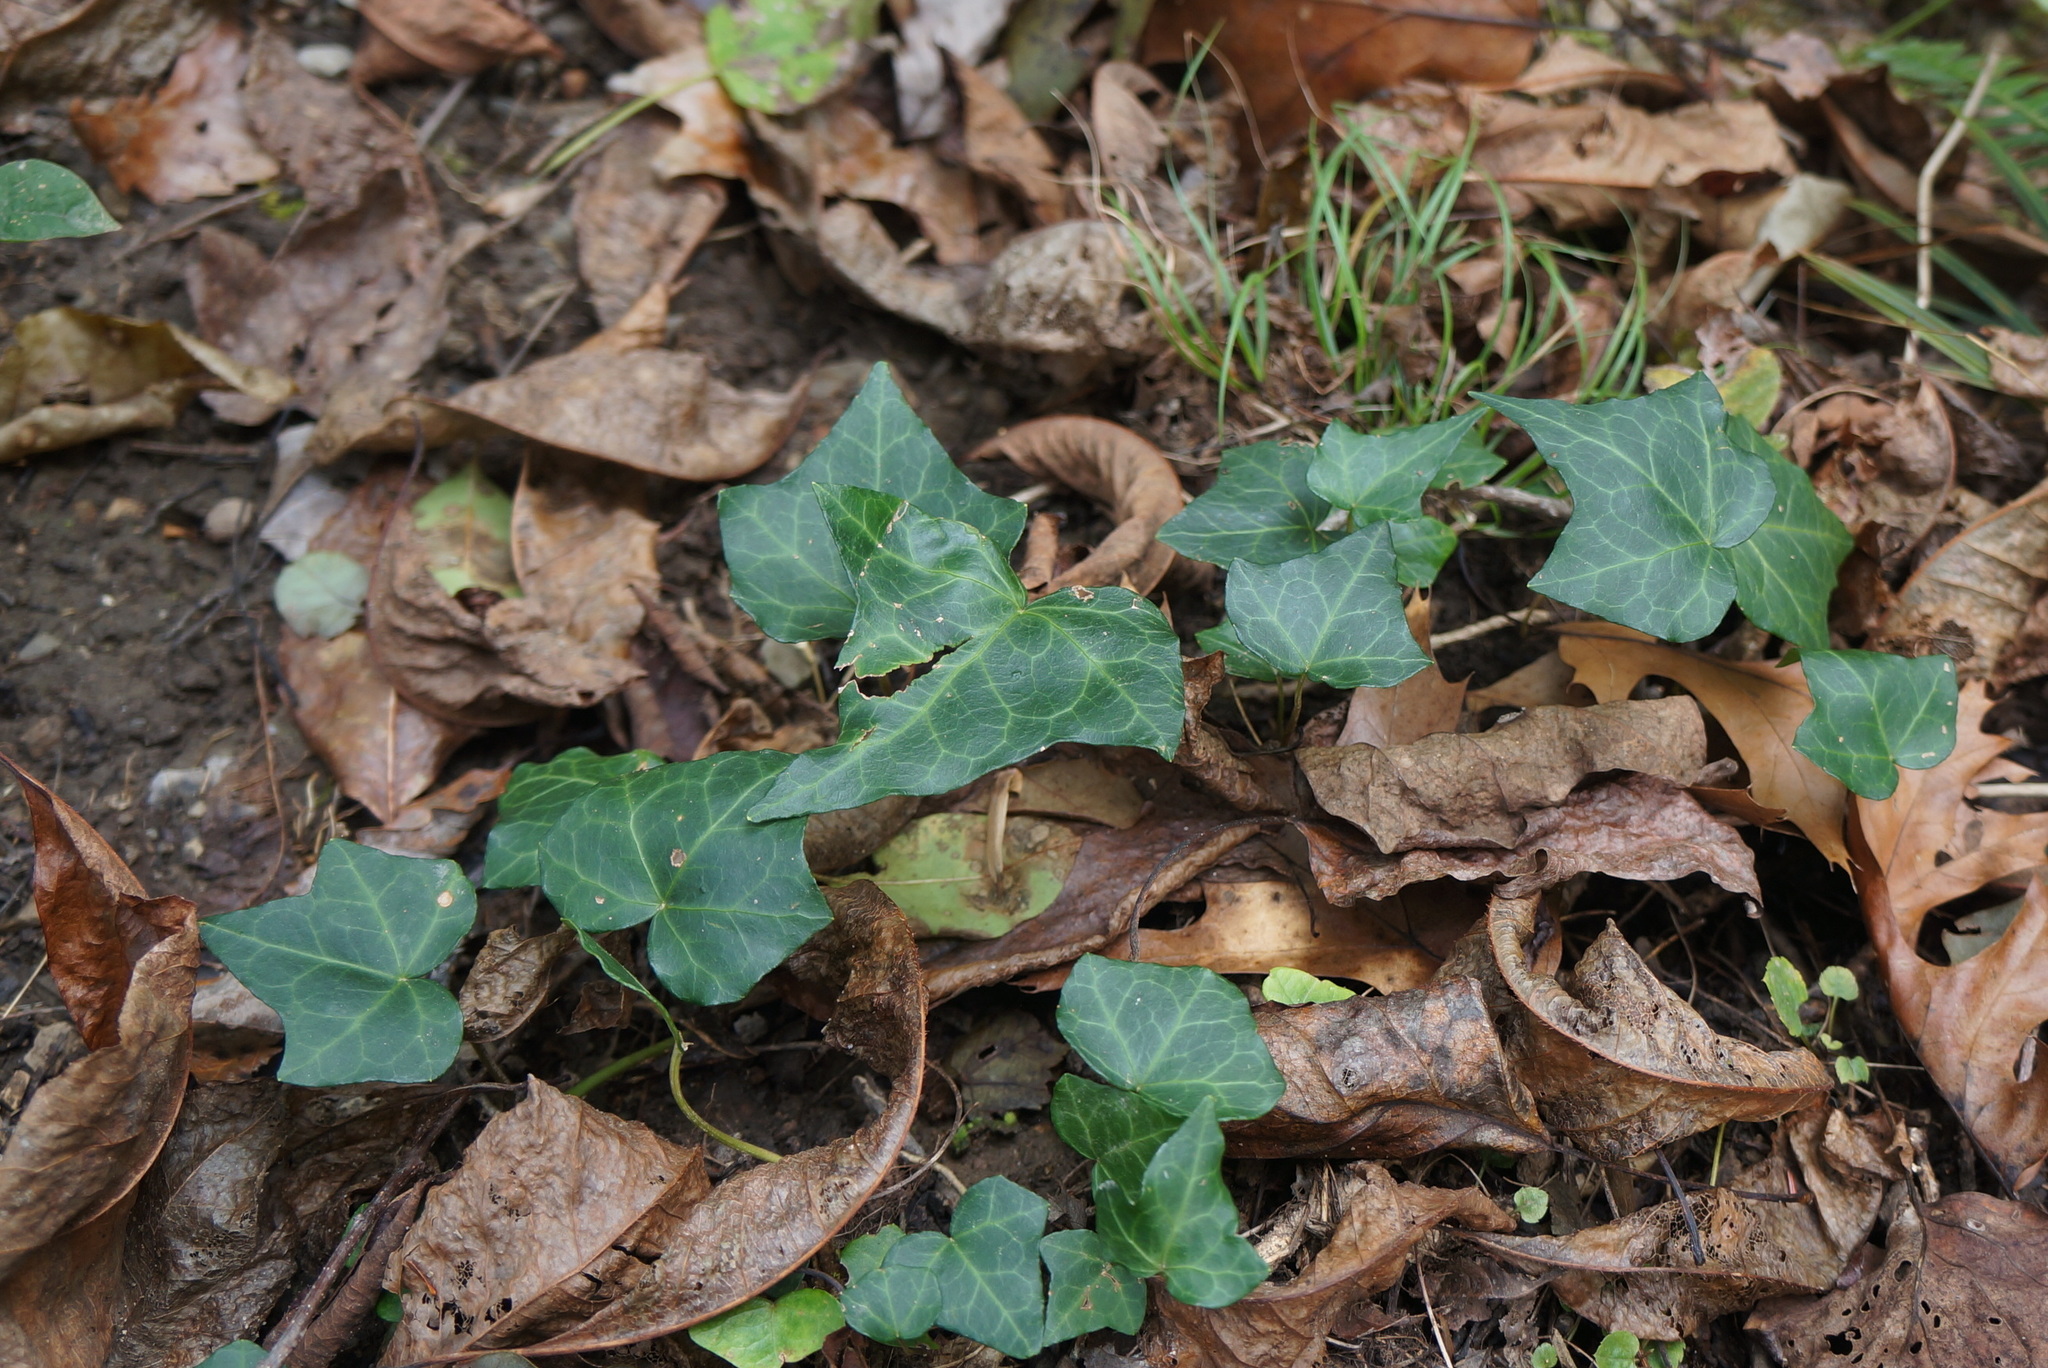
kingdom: Plantae
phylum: Tracheophyta
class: Magnoliopsida
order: Apiales
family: Araliaceae
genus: Hedera
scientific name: Hedera helix
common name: Ivy
